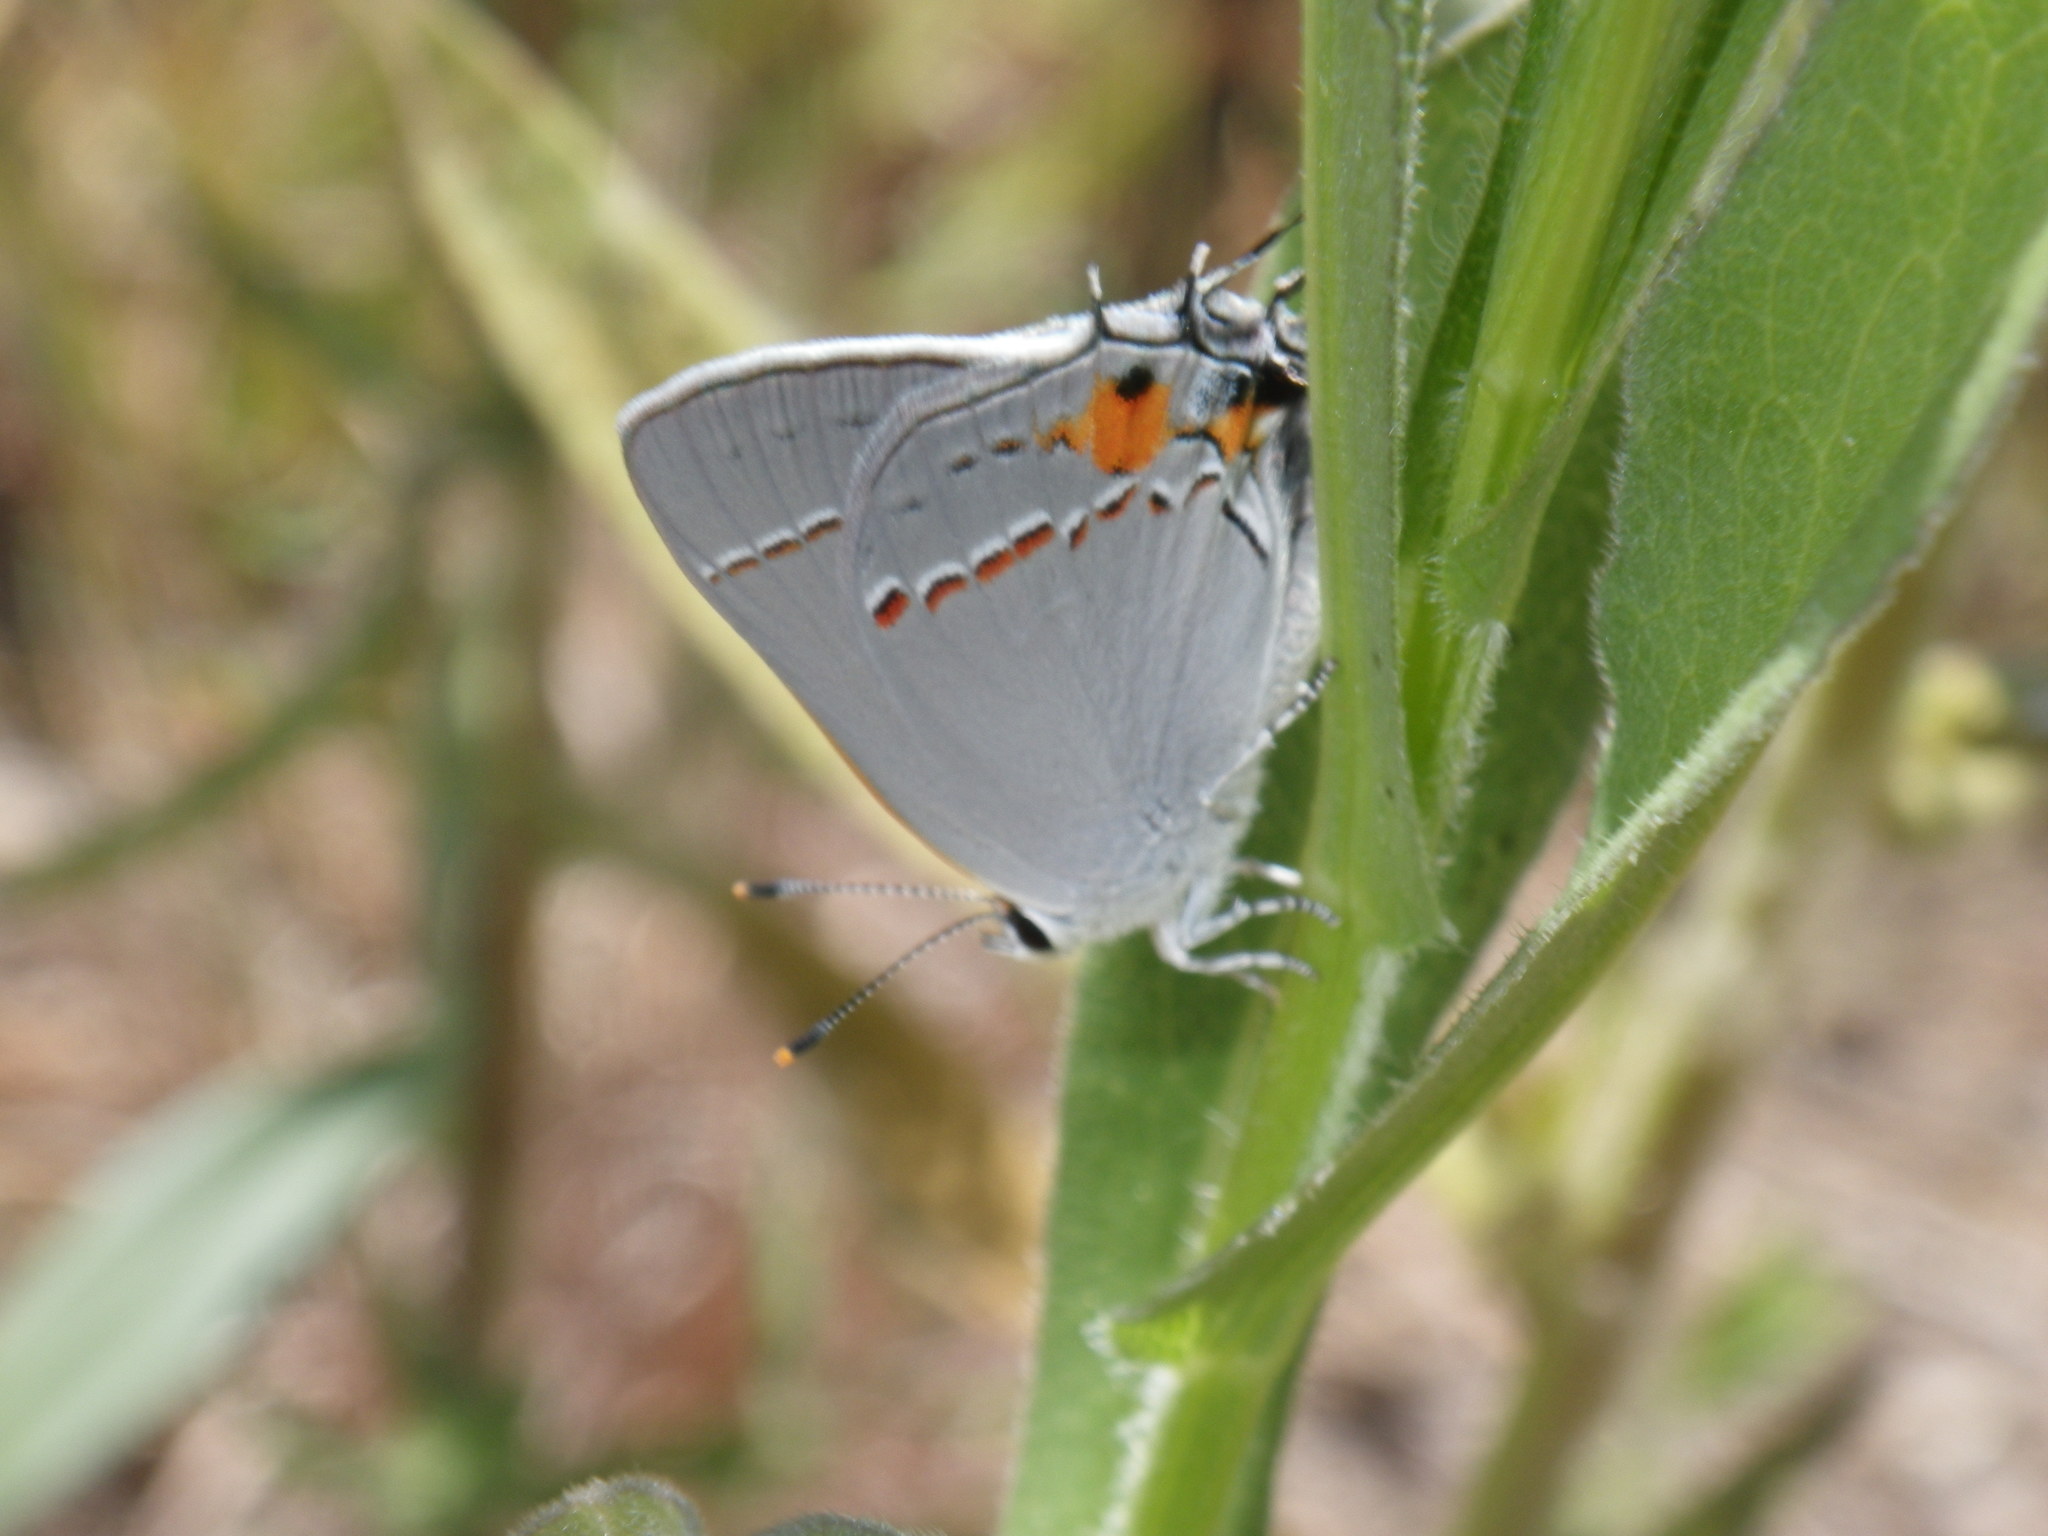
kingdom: Animalia
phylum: Arthropoda
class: Insecta
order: Lepidoptera
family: Lycaenidae
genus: Strymon
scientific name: Strymon melinus
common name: Gray hairstreak
